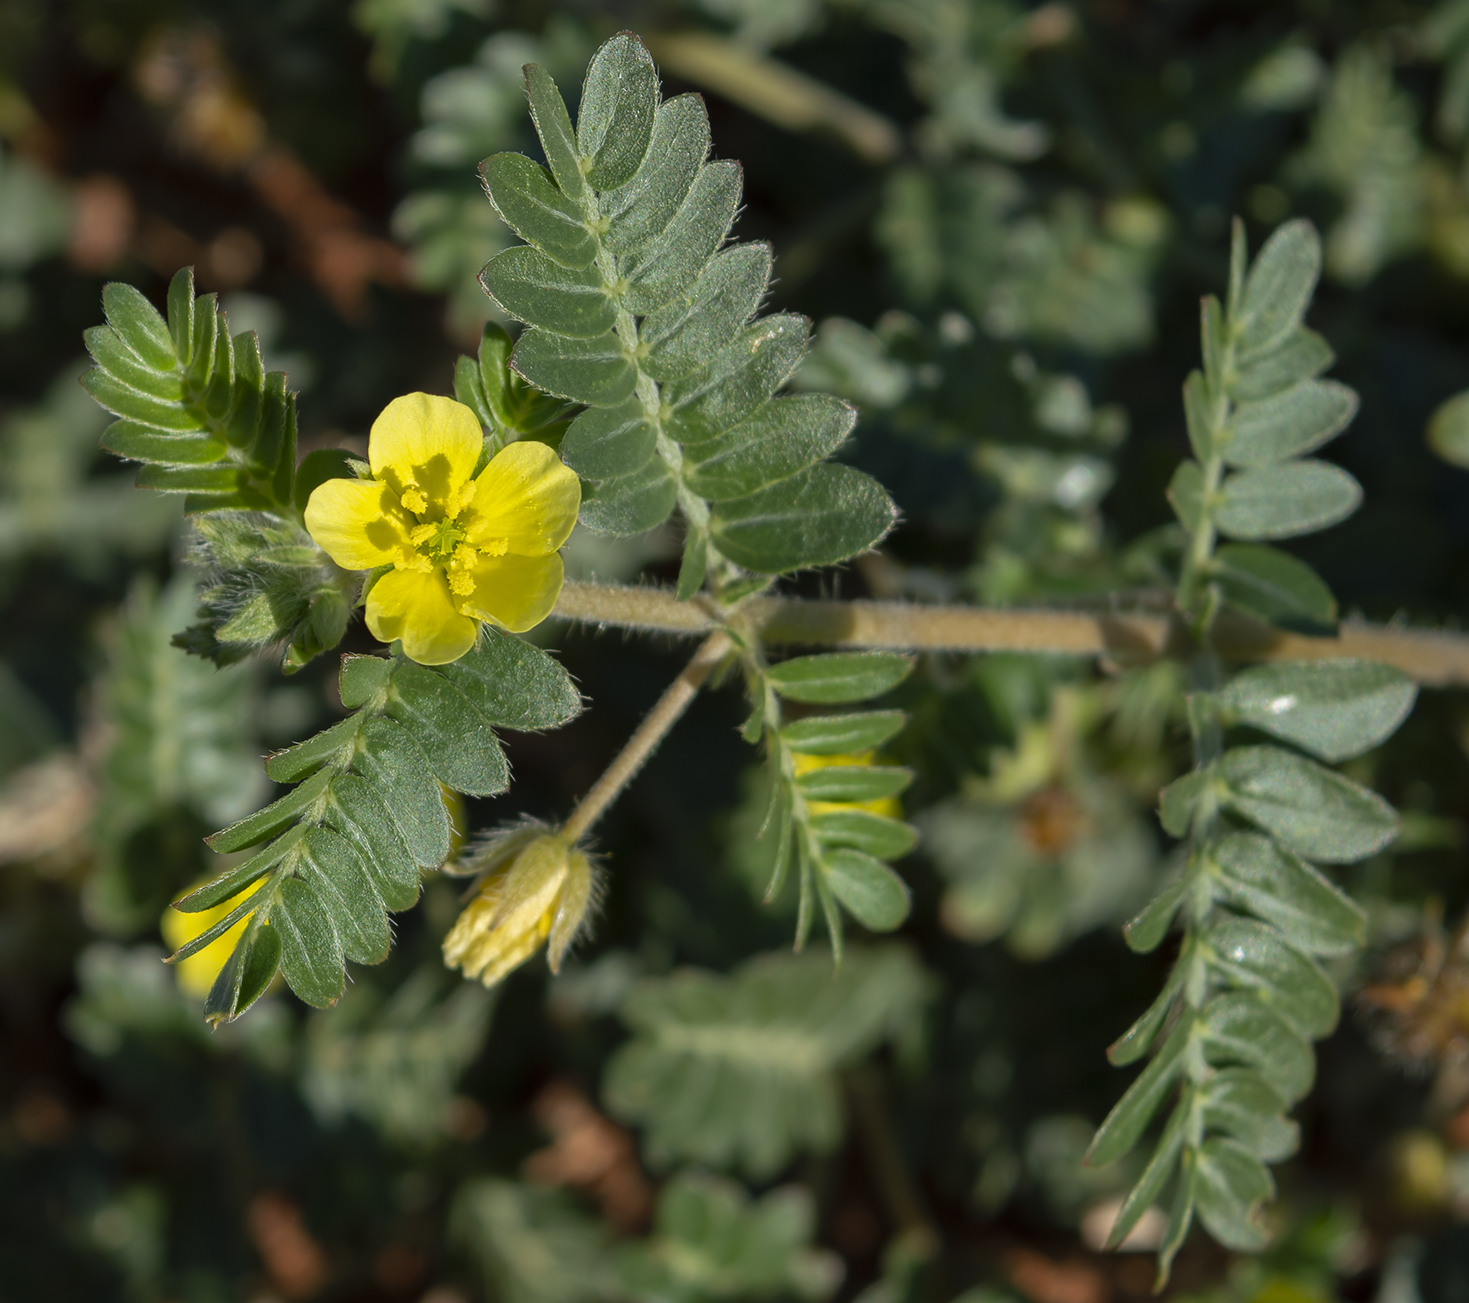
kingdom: Plantae
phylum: Tracheophyta
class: Magnoliopsida
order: Zygophyllales
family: Zygophyllaceae
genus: Tribulus
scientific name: Tribulus terrestris
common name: Puncturevine
